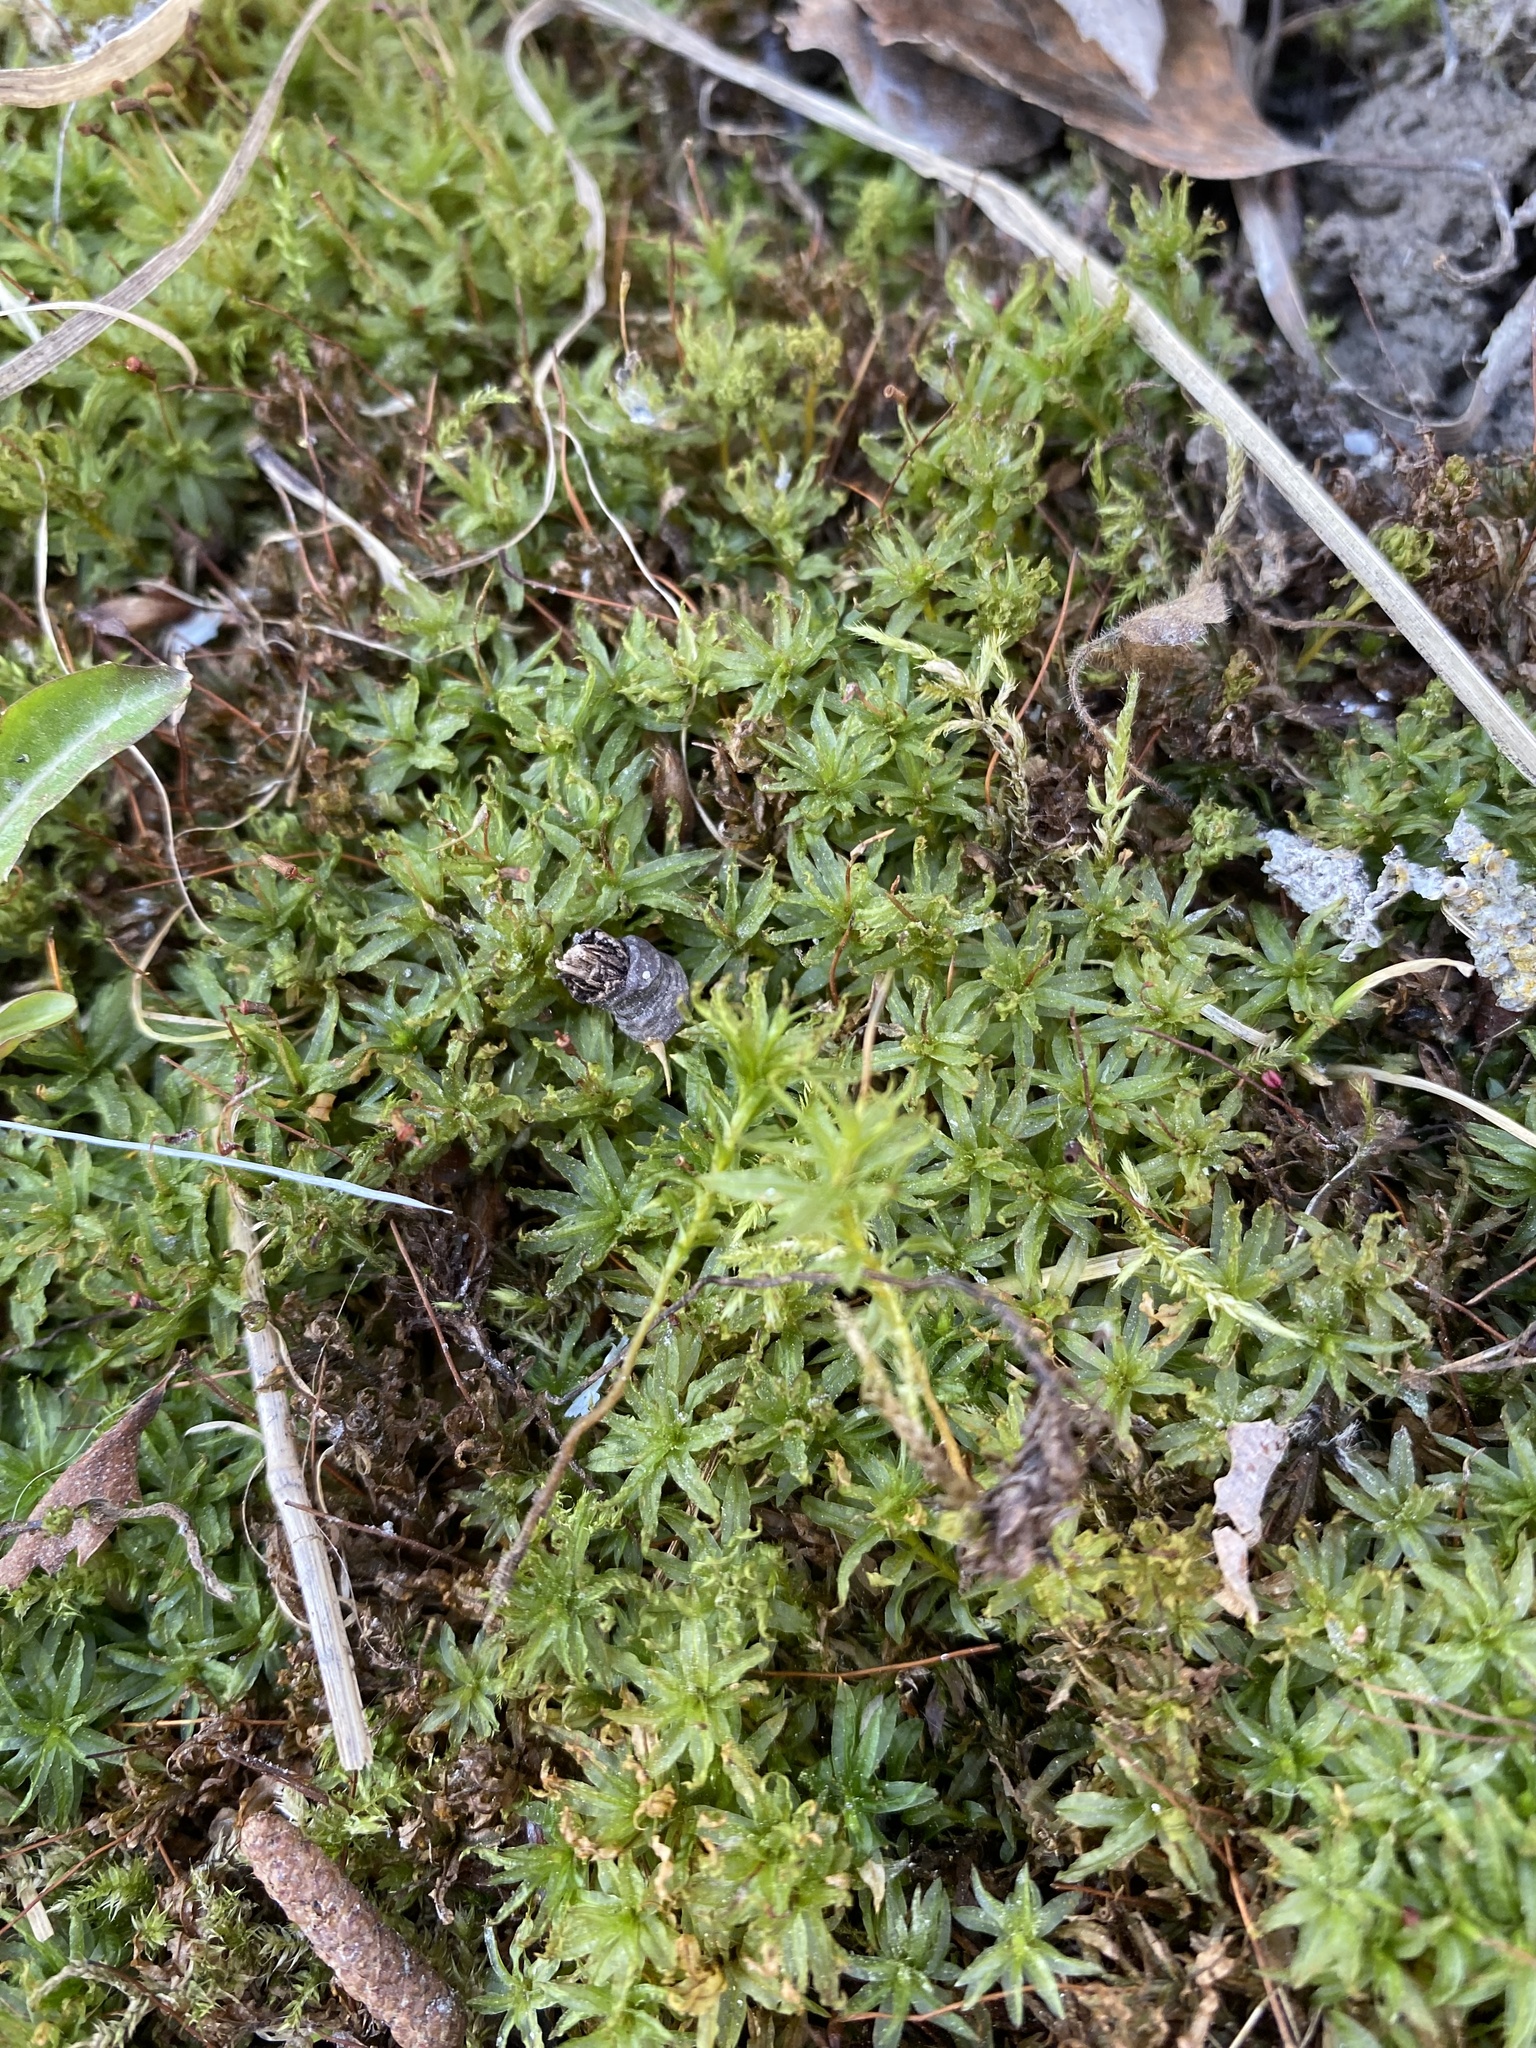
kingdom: Plantae
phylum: Bryophyta
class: Polytrichopsida
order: Polytrichales
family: Polytrichaceae
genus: Atrichum
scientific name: Atrichum undulatum
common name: Common smoothcap
